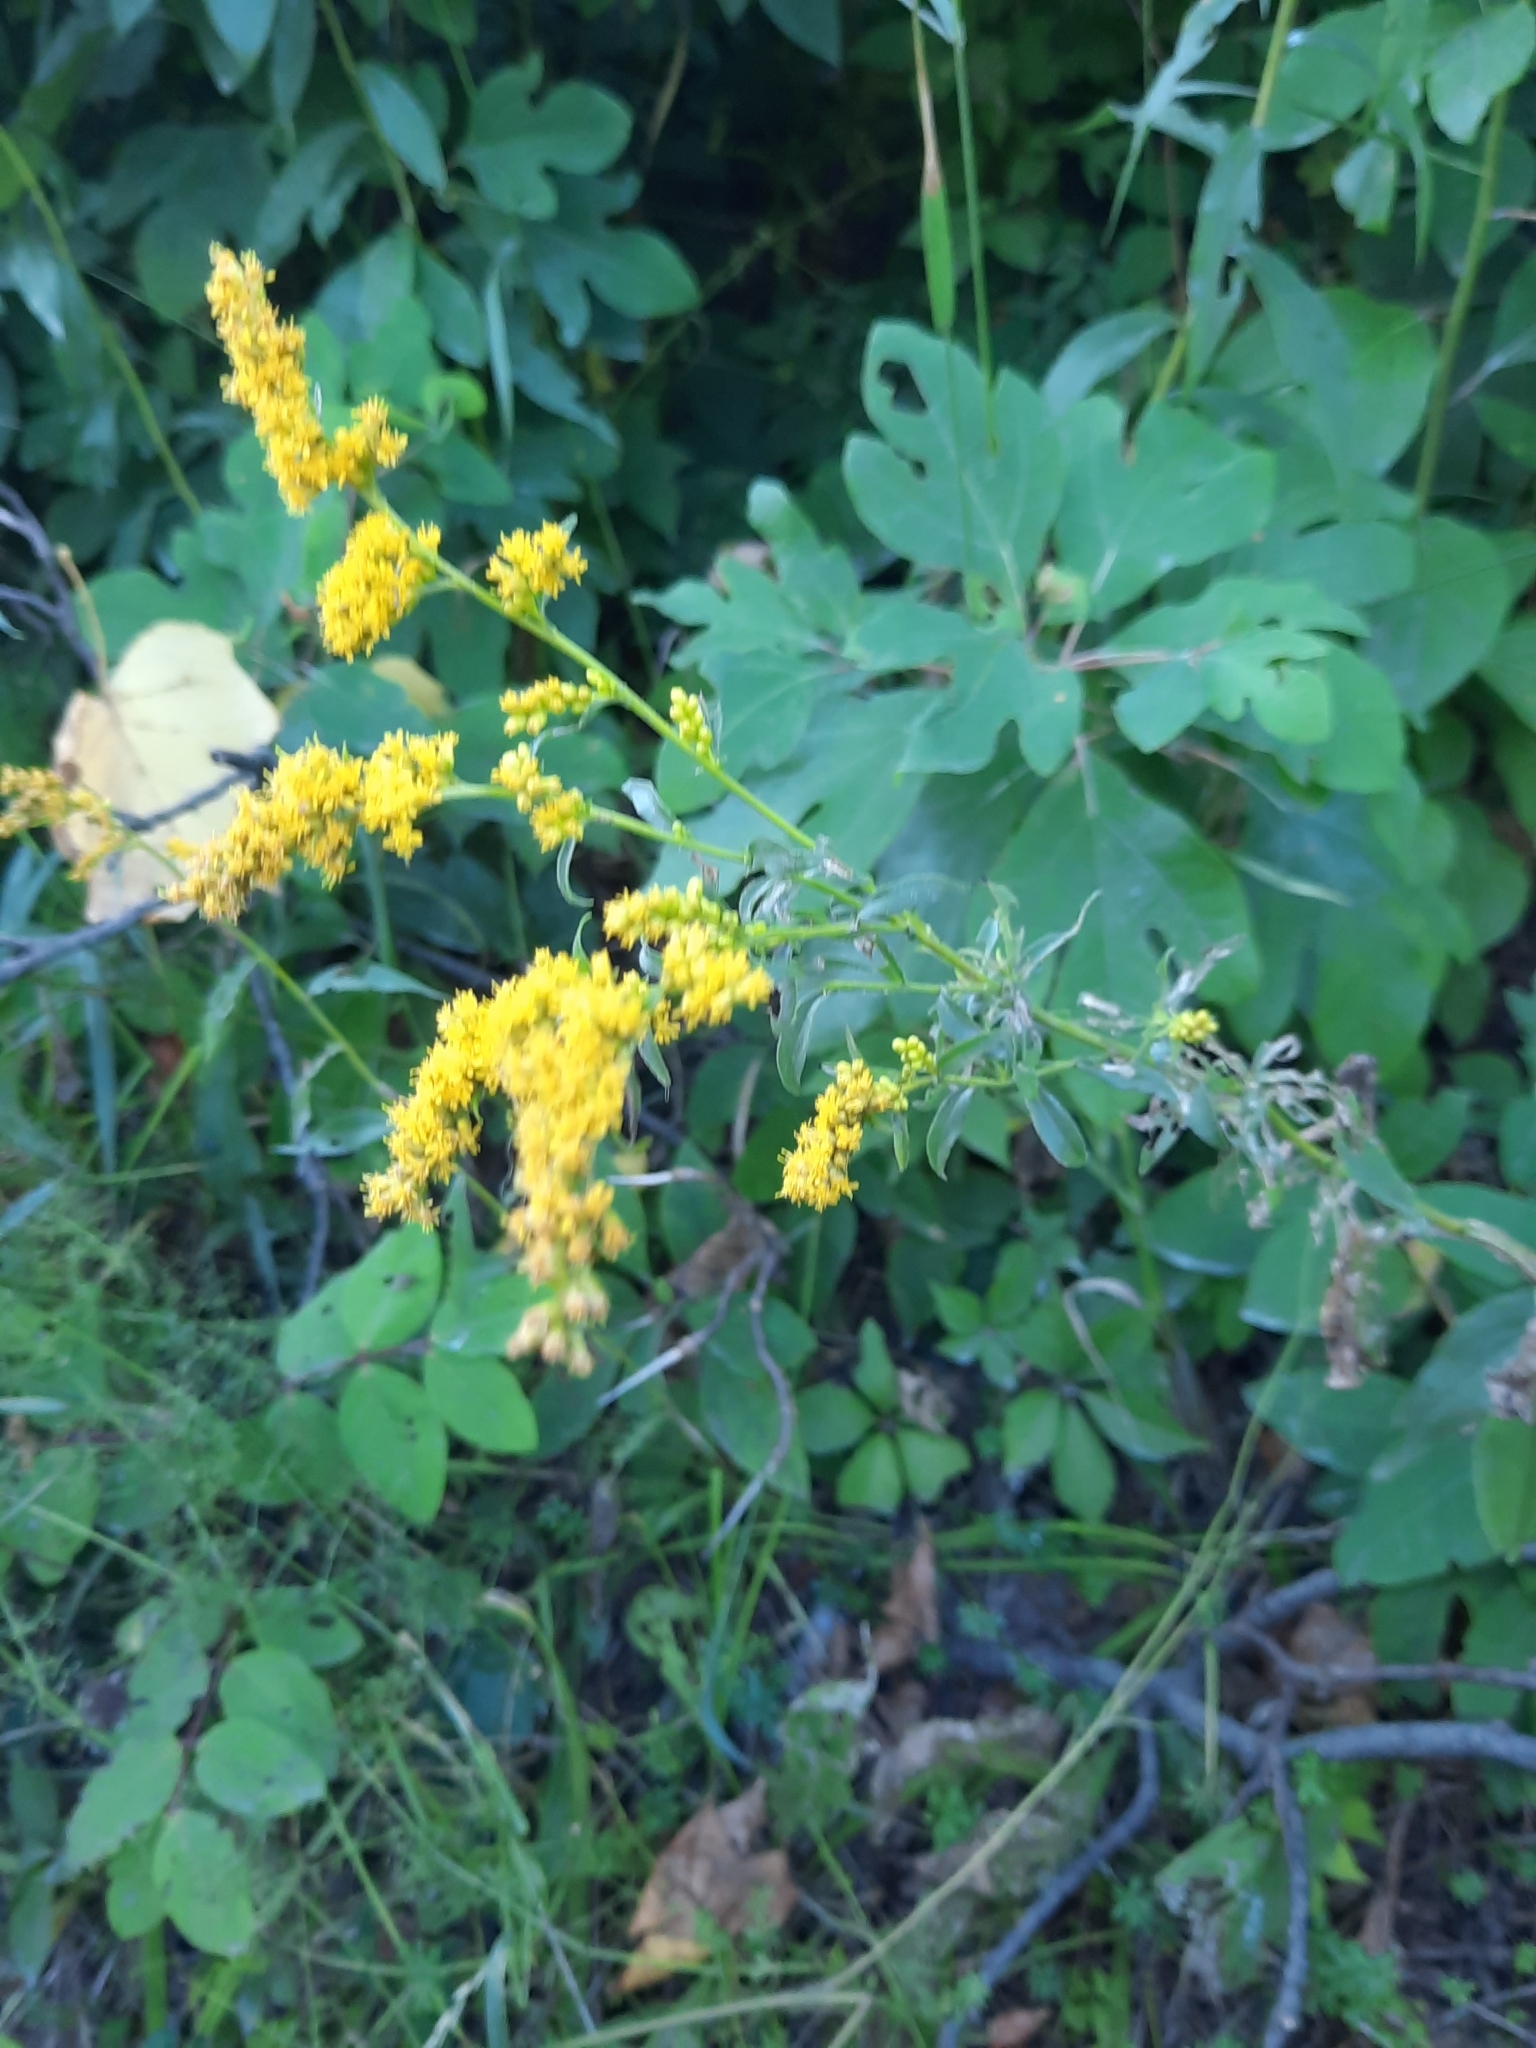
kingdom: Plantae
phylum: Tracheophyta
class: Magnoliopsida
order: Asterales
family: Asteraceae
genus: Solidago
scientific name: Solidago juncea
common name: Early goldenrod
